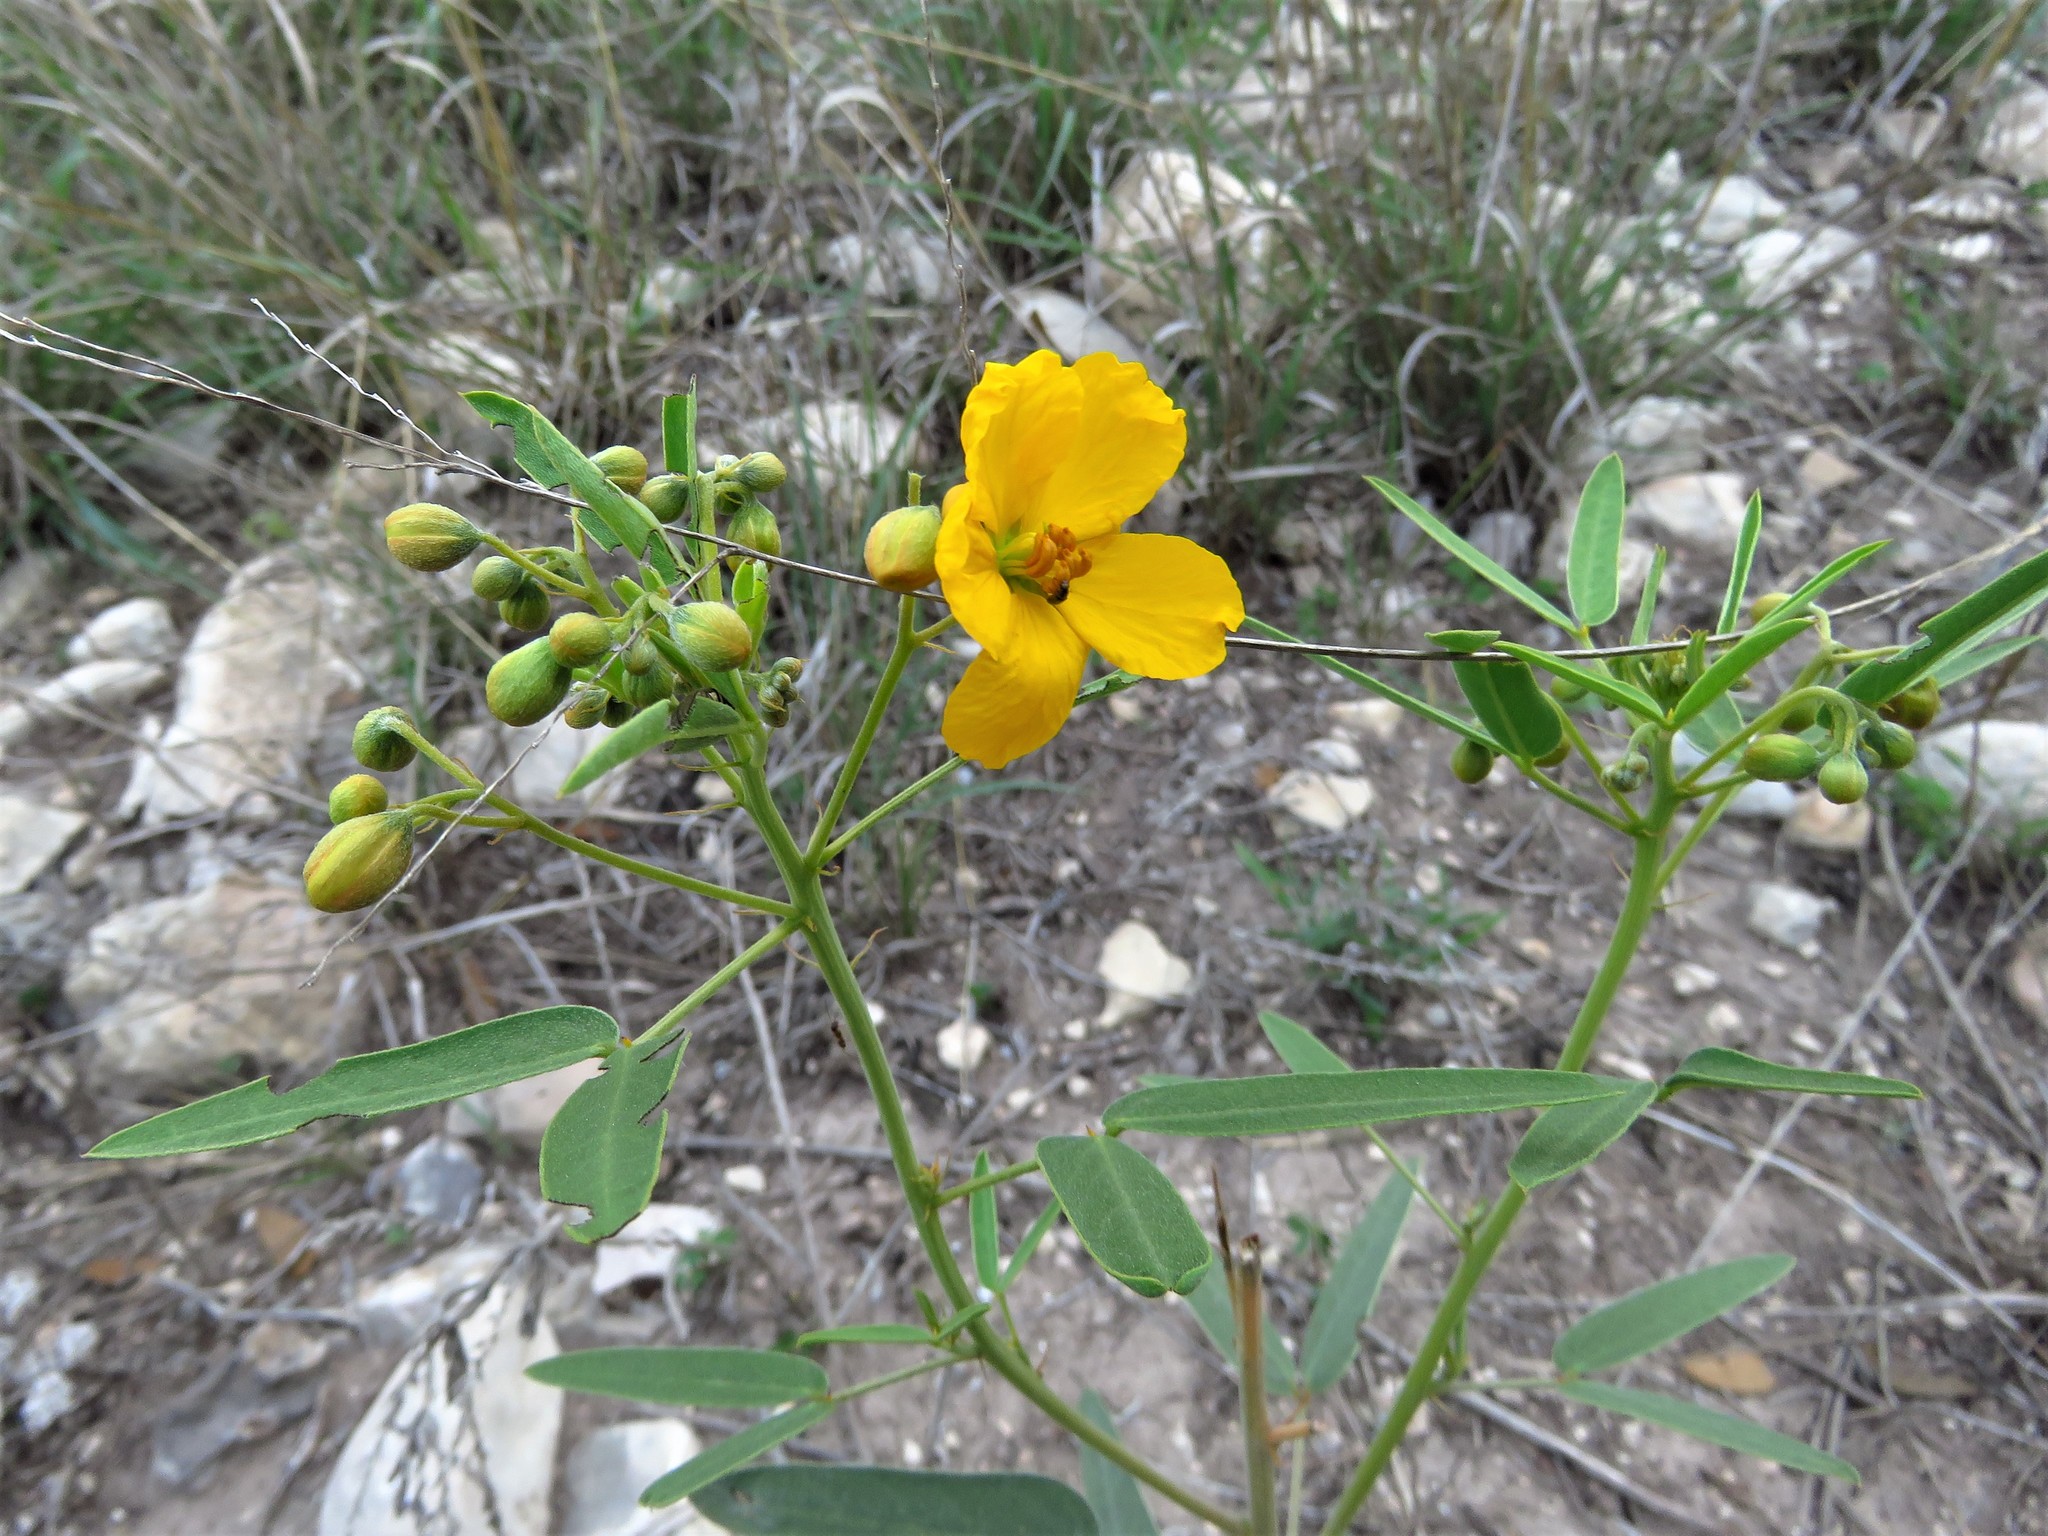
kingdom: Plantae
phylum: Tracheophyta
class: Magnoliopsida
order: Fabales
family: Fabaceae
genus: Senna
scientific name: Senna roemeriana
